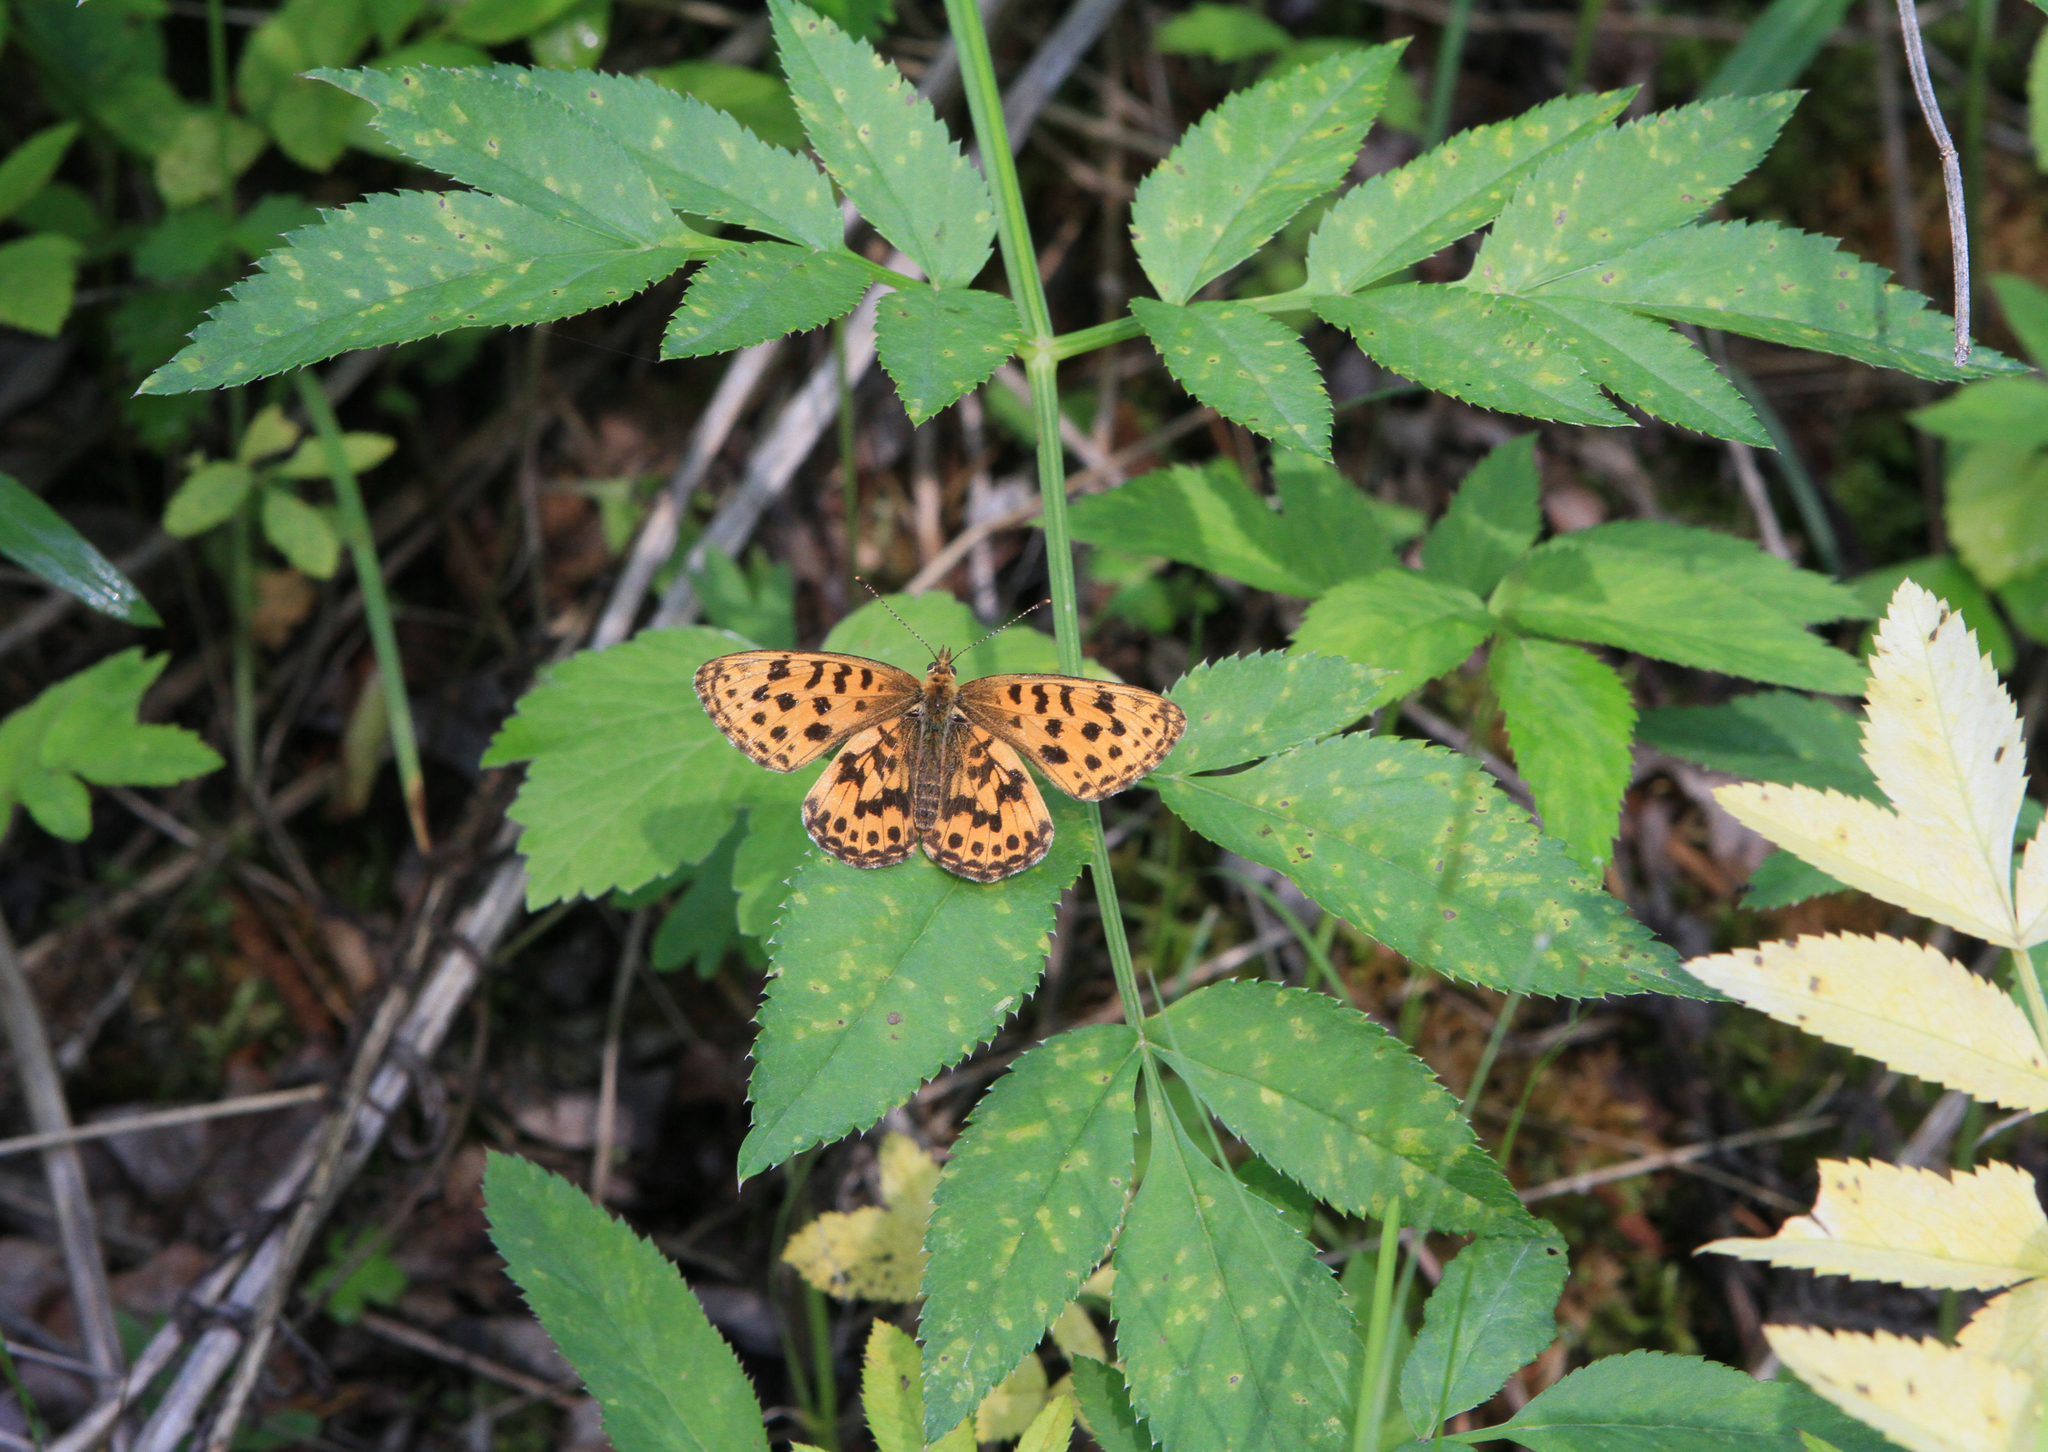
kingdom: Animalia
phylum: Arthropoda
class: Insecta
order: Lepidoptera
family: Nymphalidae
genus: Boloria
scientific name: Boloria thore
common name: Thor's fritillary
